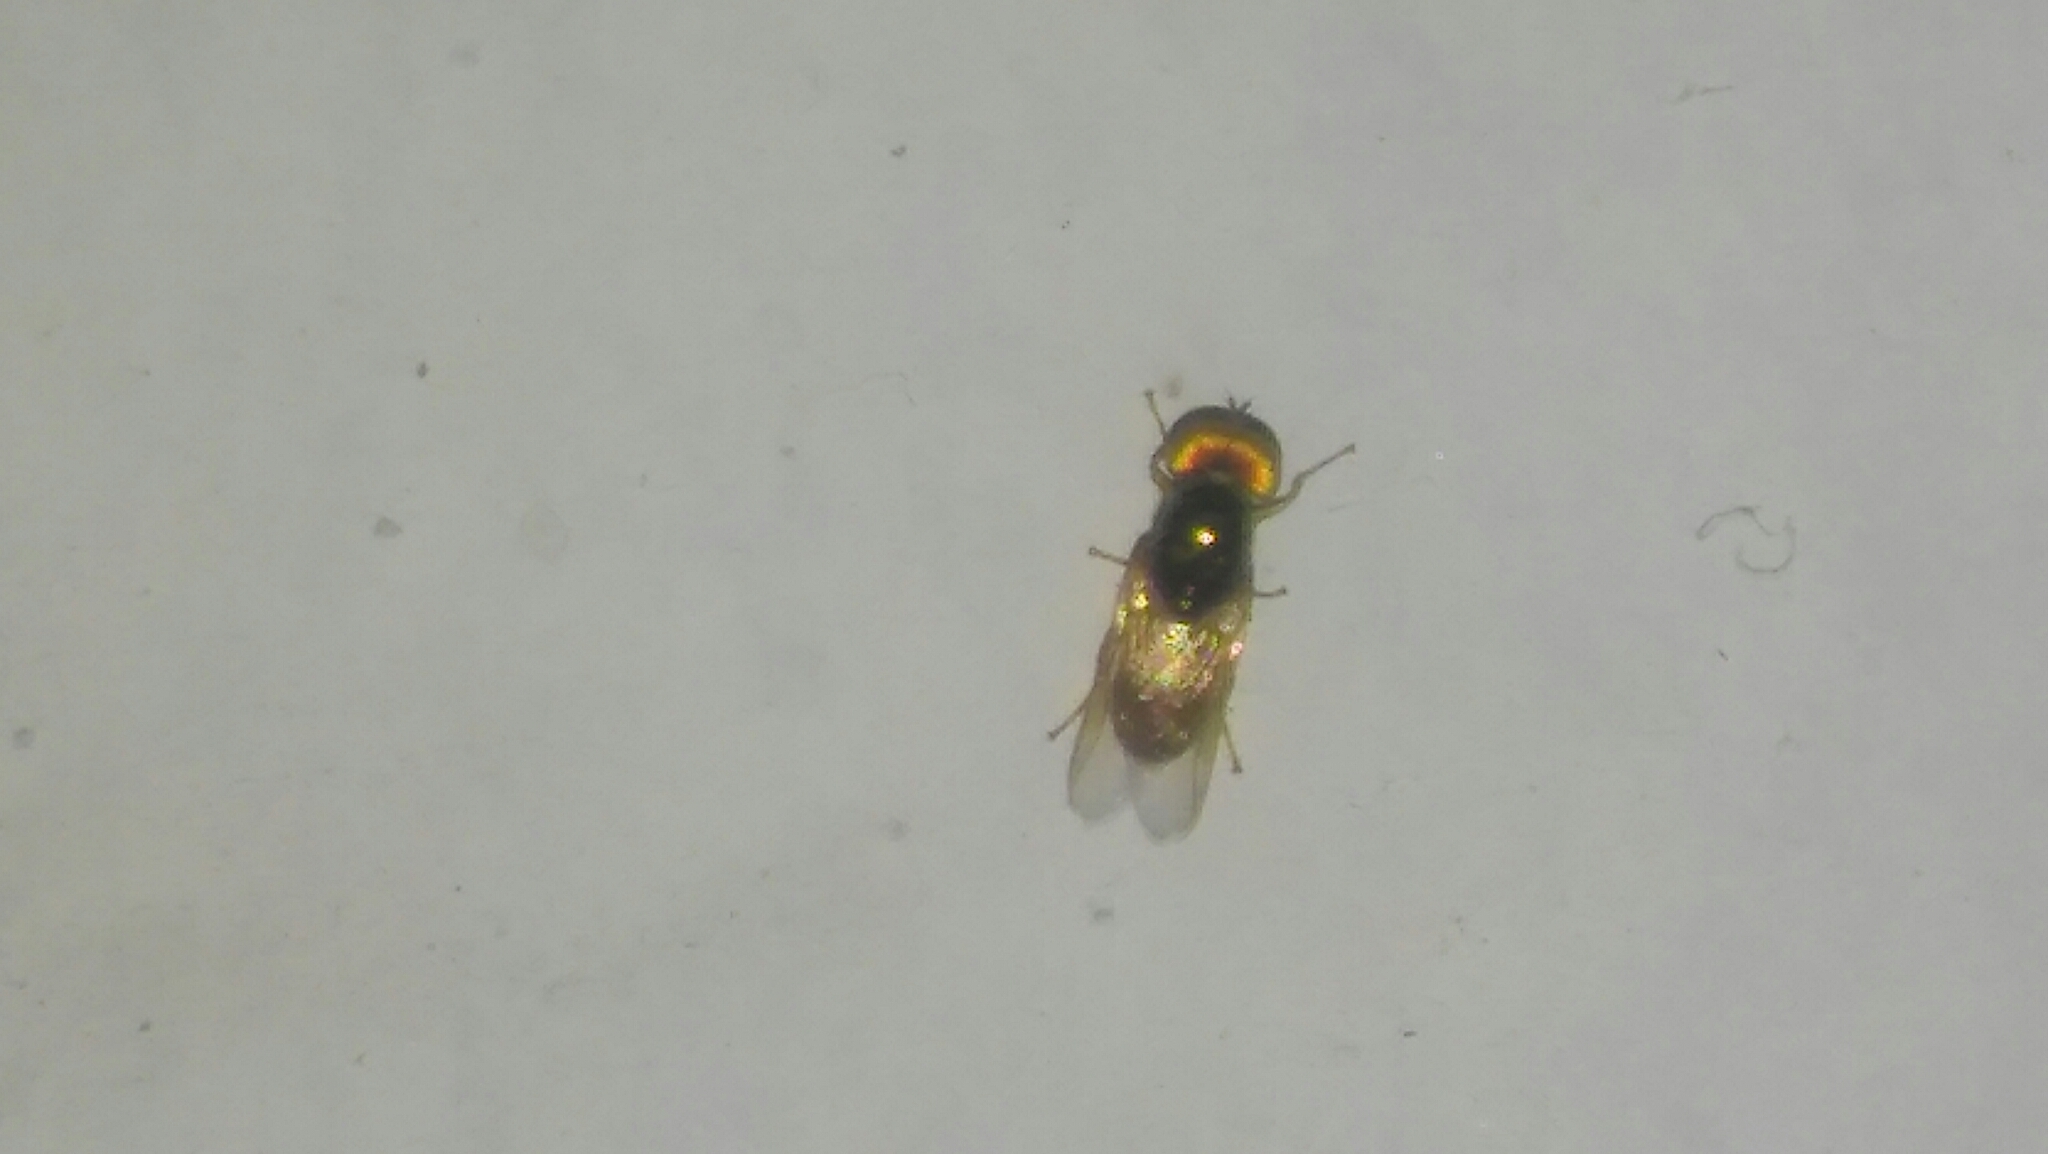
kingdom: Animalia
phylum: Arthropoda
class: Insecta
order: Diptera
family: Stratiomyidae
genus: Microchrysa
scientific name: Microchrysa bicolor
